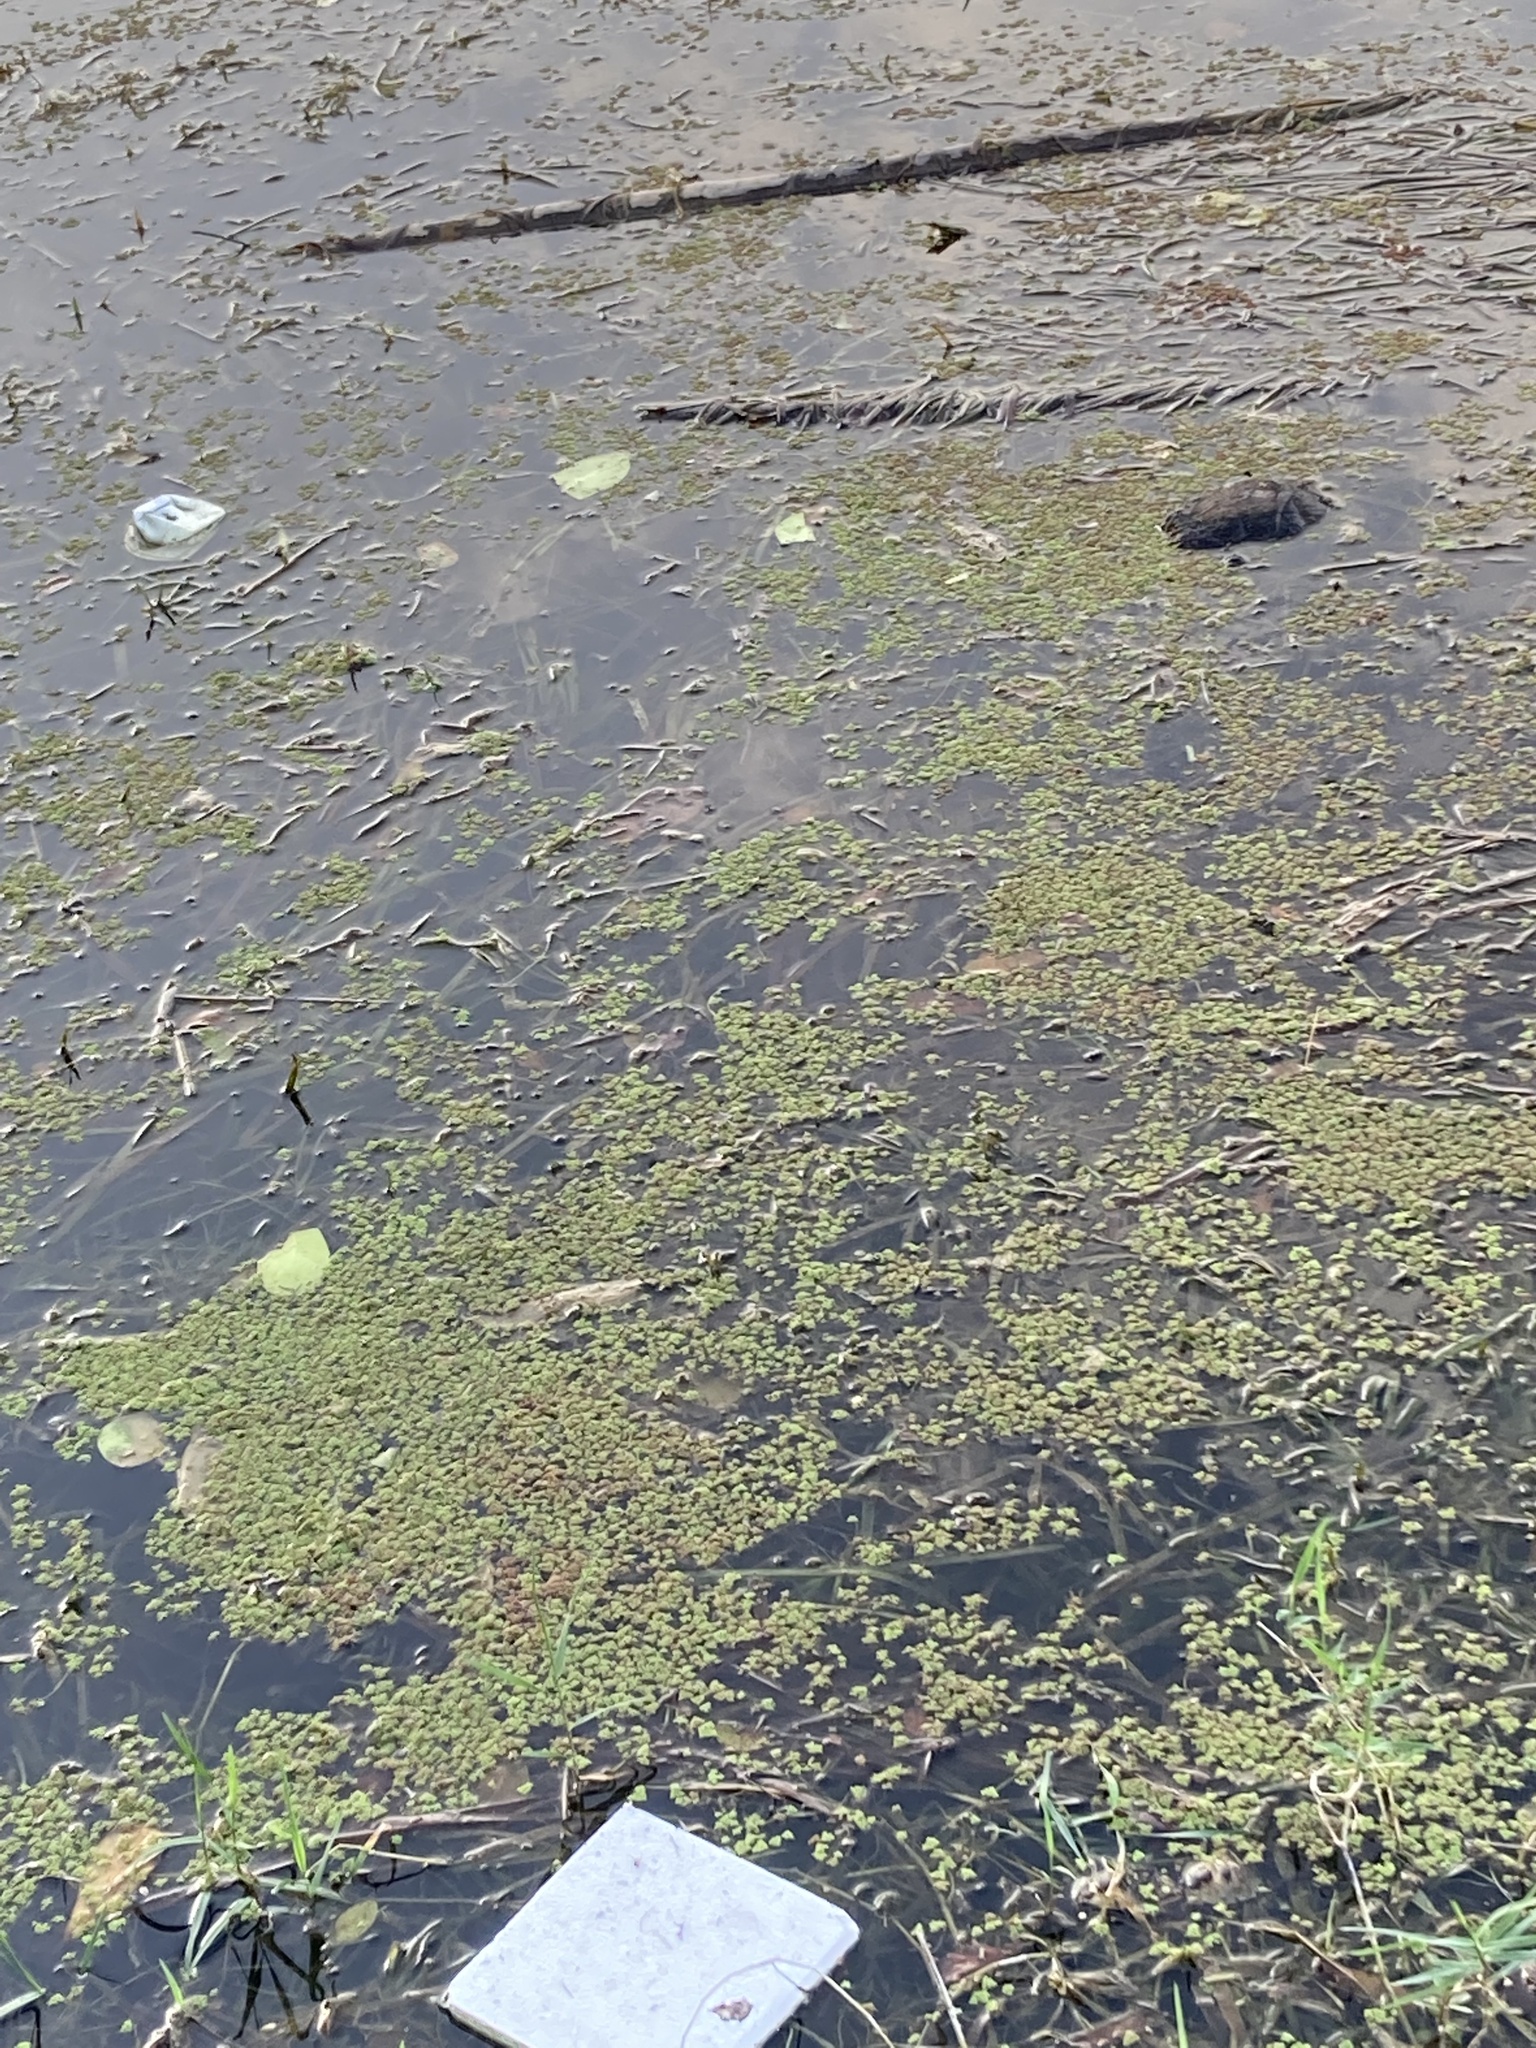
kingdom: Plantae
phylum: Tracheophyta
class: Polypodiopsida
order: Salviniales
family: Salviniaceae
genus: Azolla
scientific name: Azolla pinnata
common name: Ferny azolla
